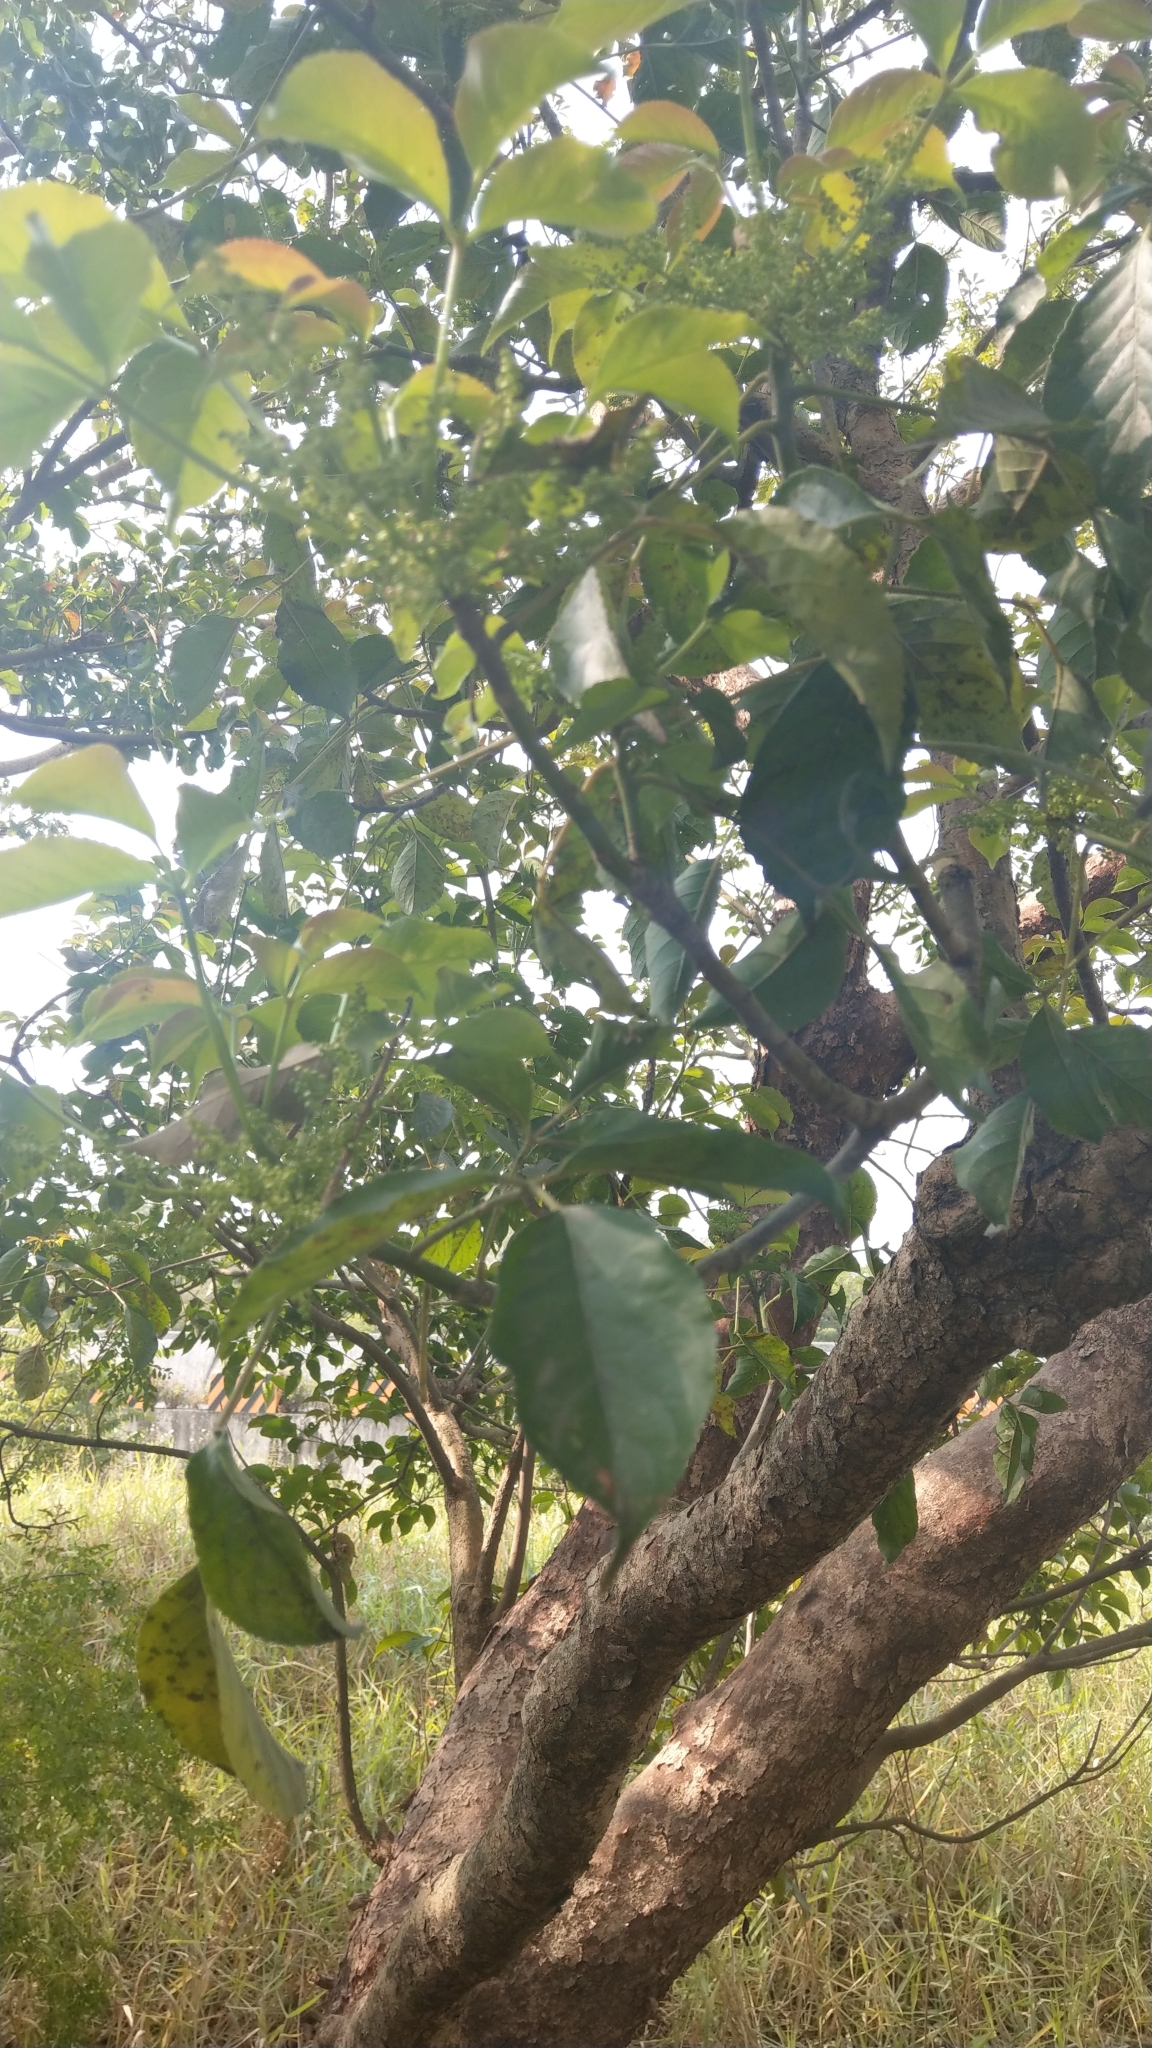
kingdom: Plantae
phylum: Tracheophyta
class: Magnoliopsida
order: Malpighiales
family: Phyllanthaceae
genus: Bischofia
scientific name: Bischofia javanica
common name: Javanese bishopwood
